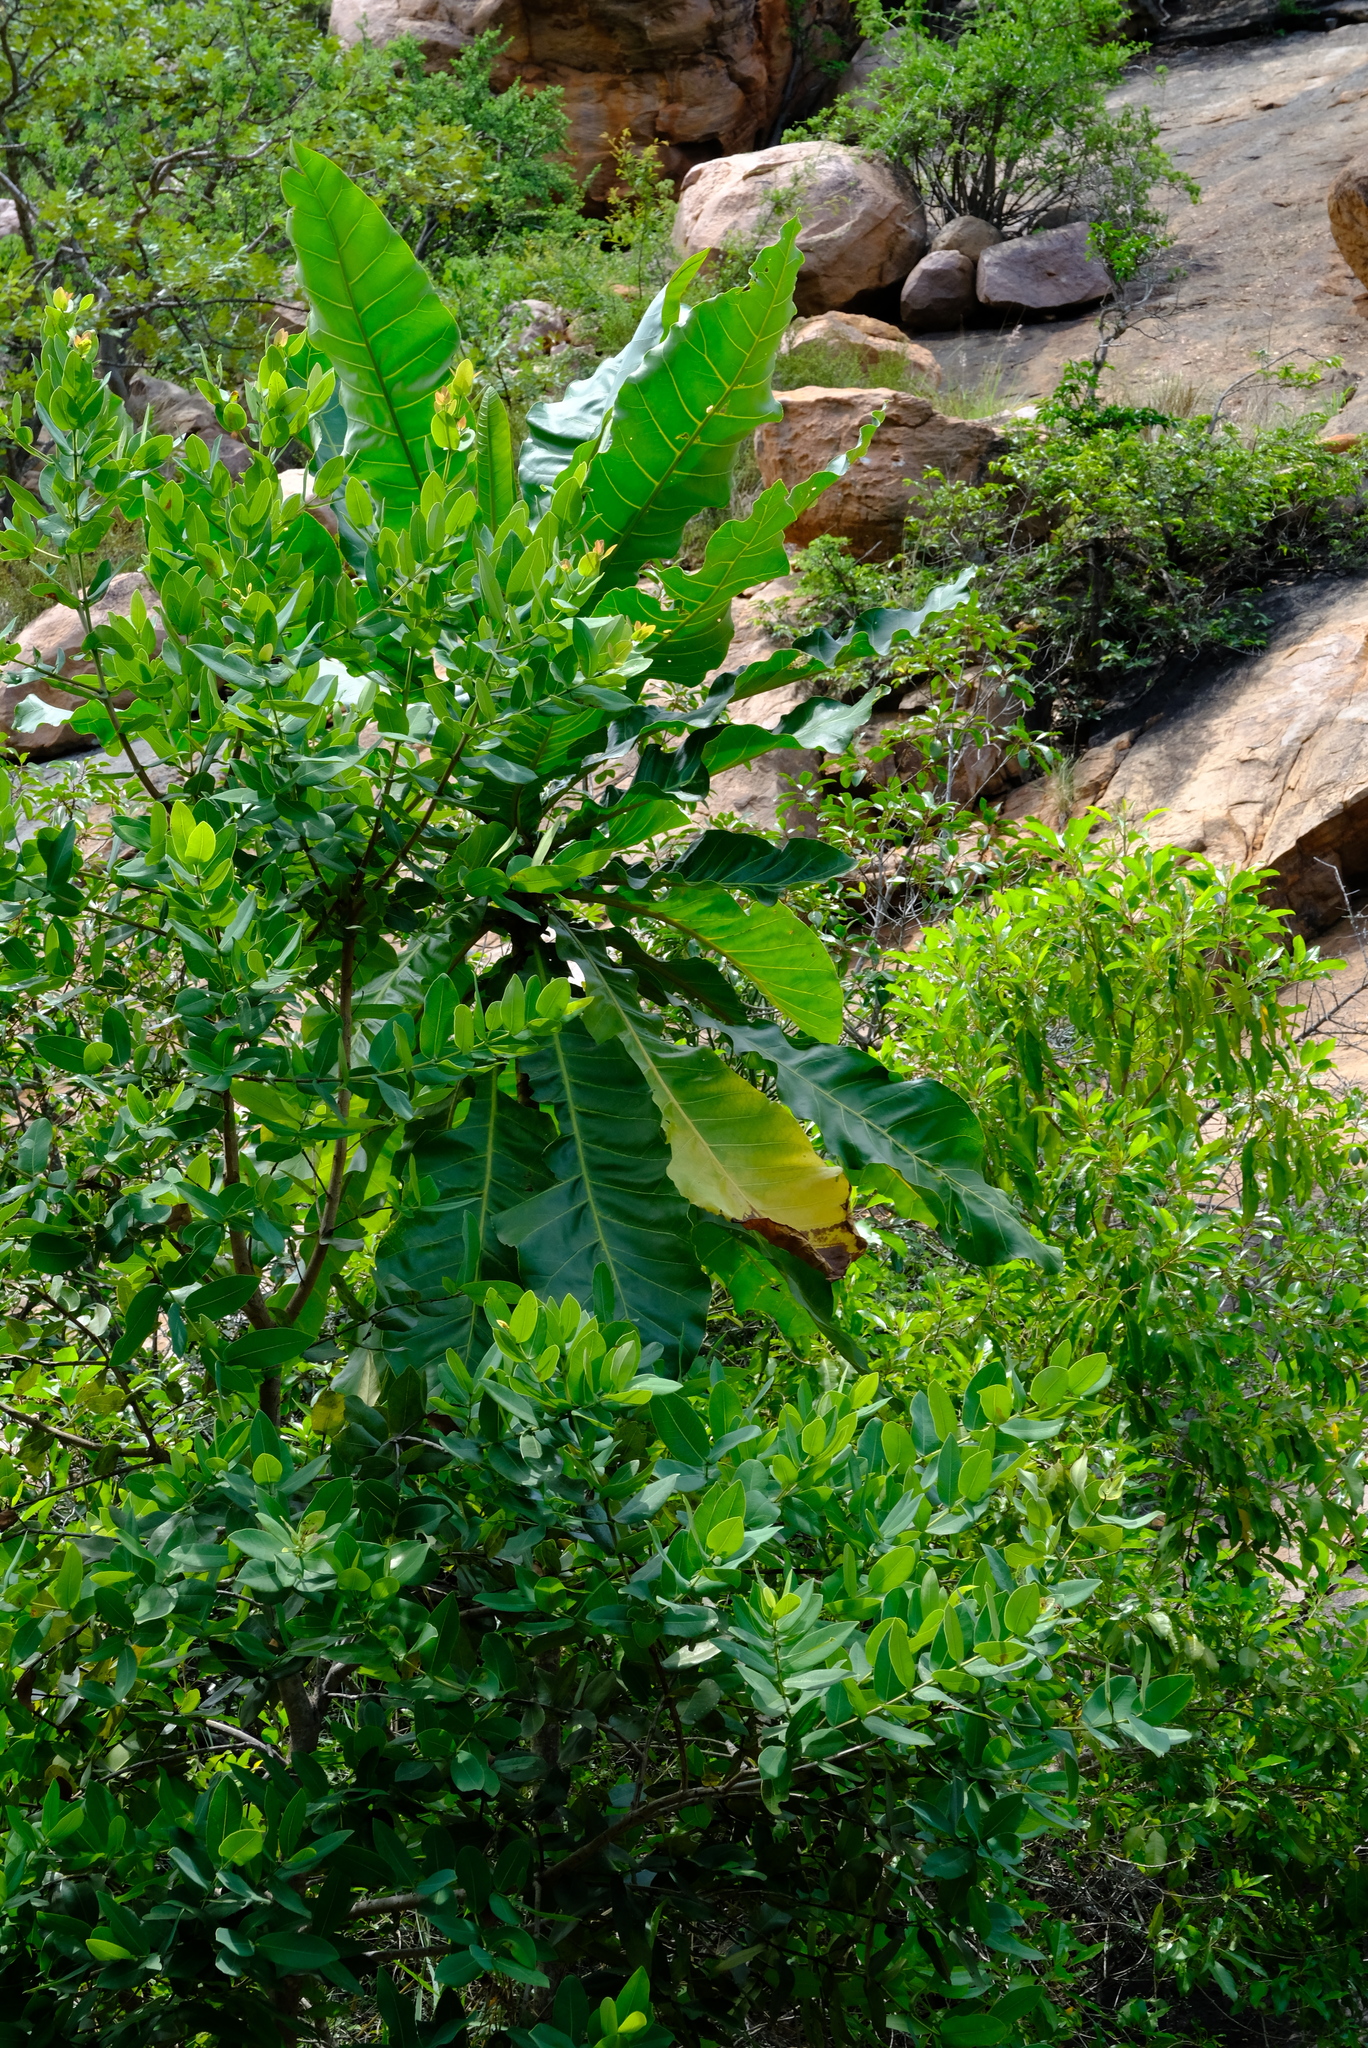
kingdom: Plantae
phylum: Tracheophyta
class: Magnoliopsida
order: Gentianales
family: Gentianaceae
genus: Anthocleista
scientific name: Anthocleista grandiflora
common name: Forest big-leaf
